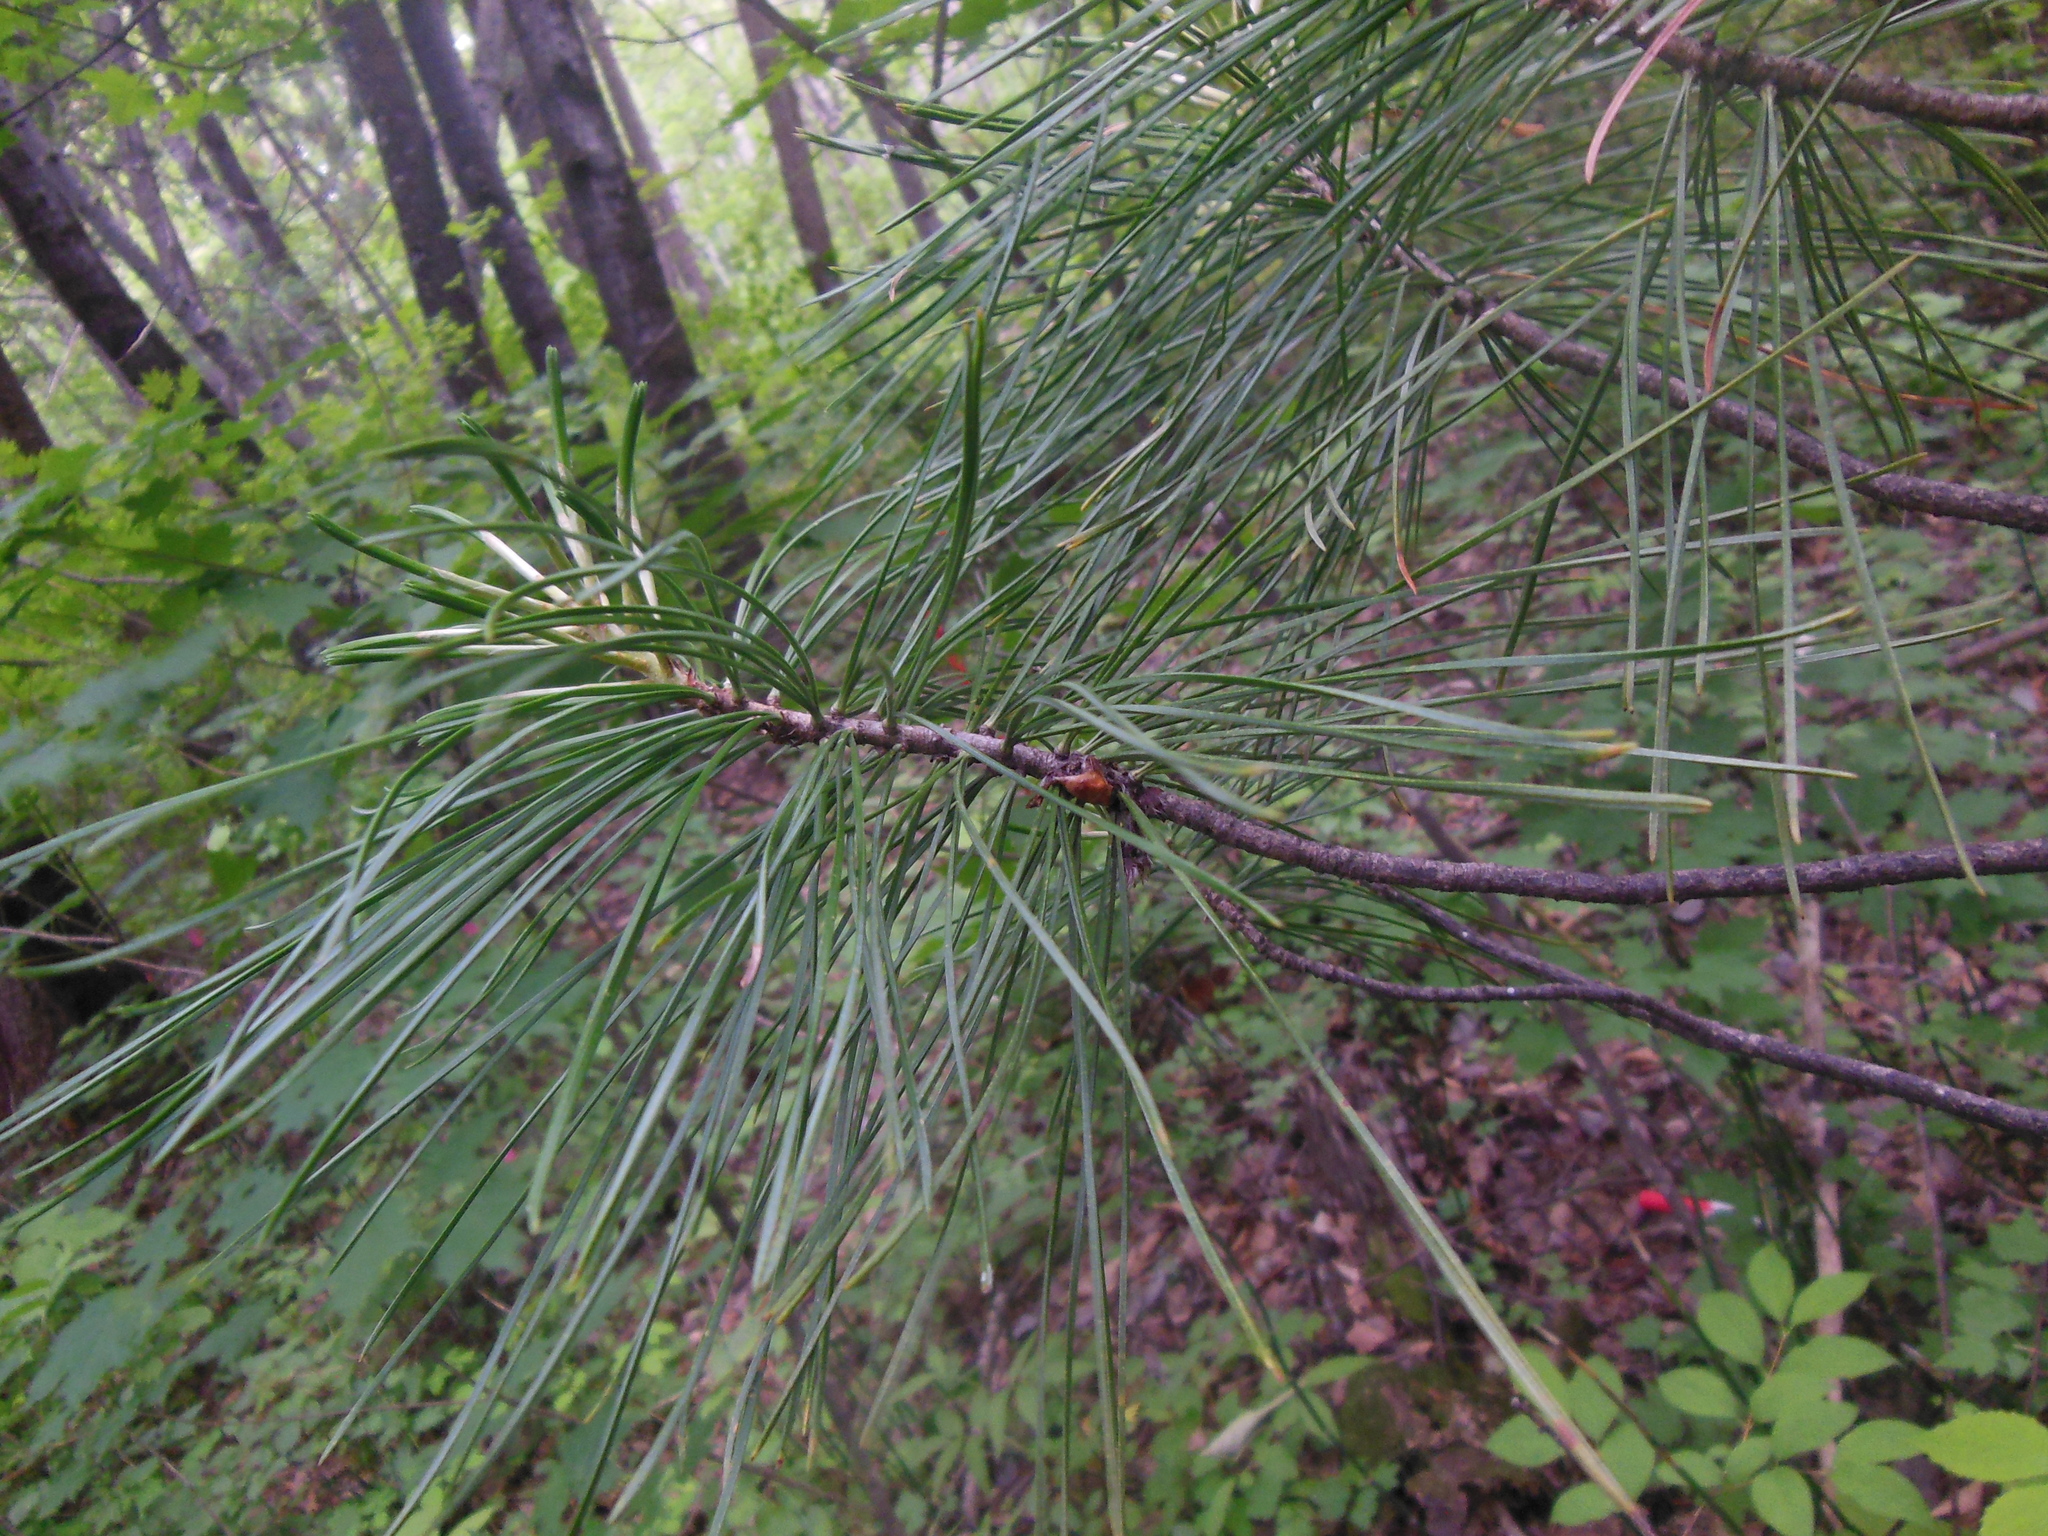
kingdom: Plantae
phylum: Tracheophyta
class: Pinopsida
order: Pinales
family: Pinaceae
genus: Pinus
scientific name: Pinus koraiensis
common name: Korean pine
